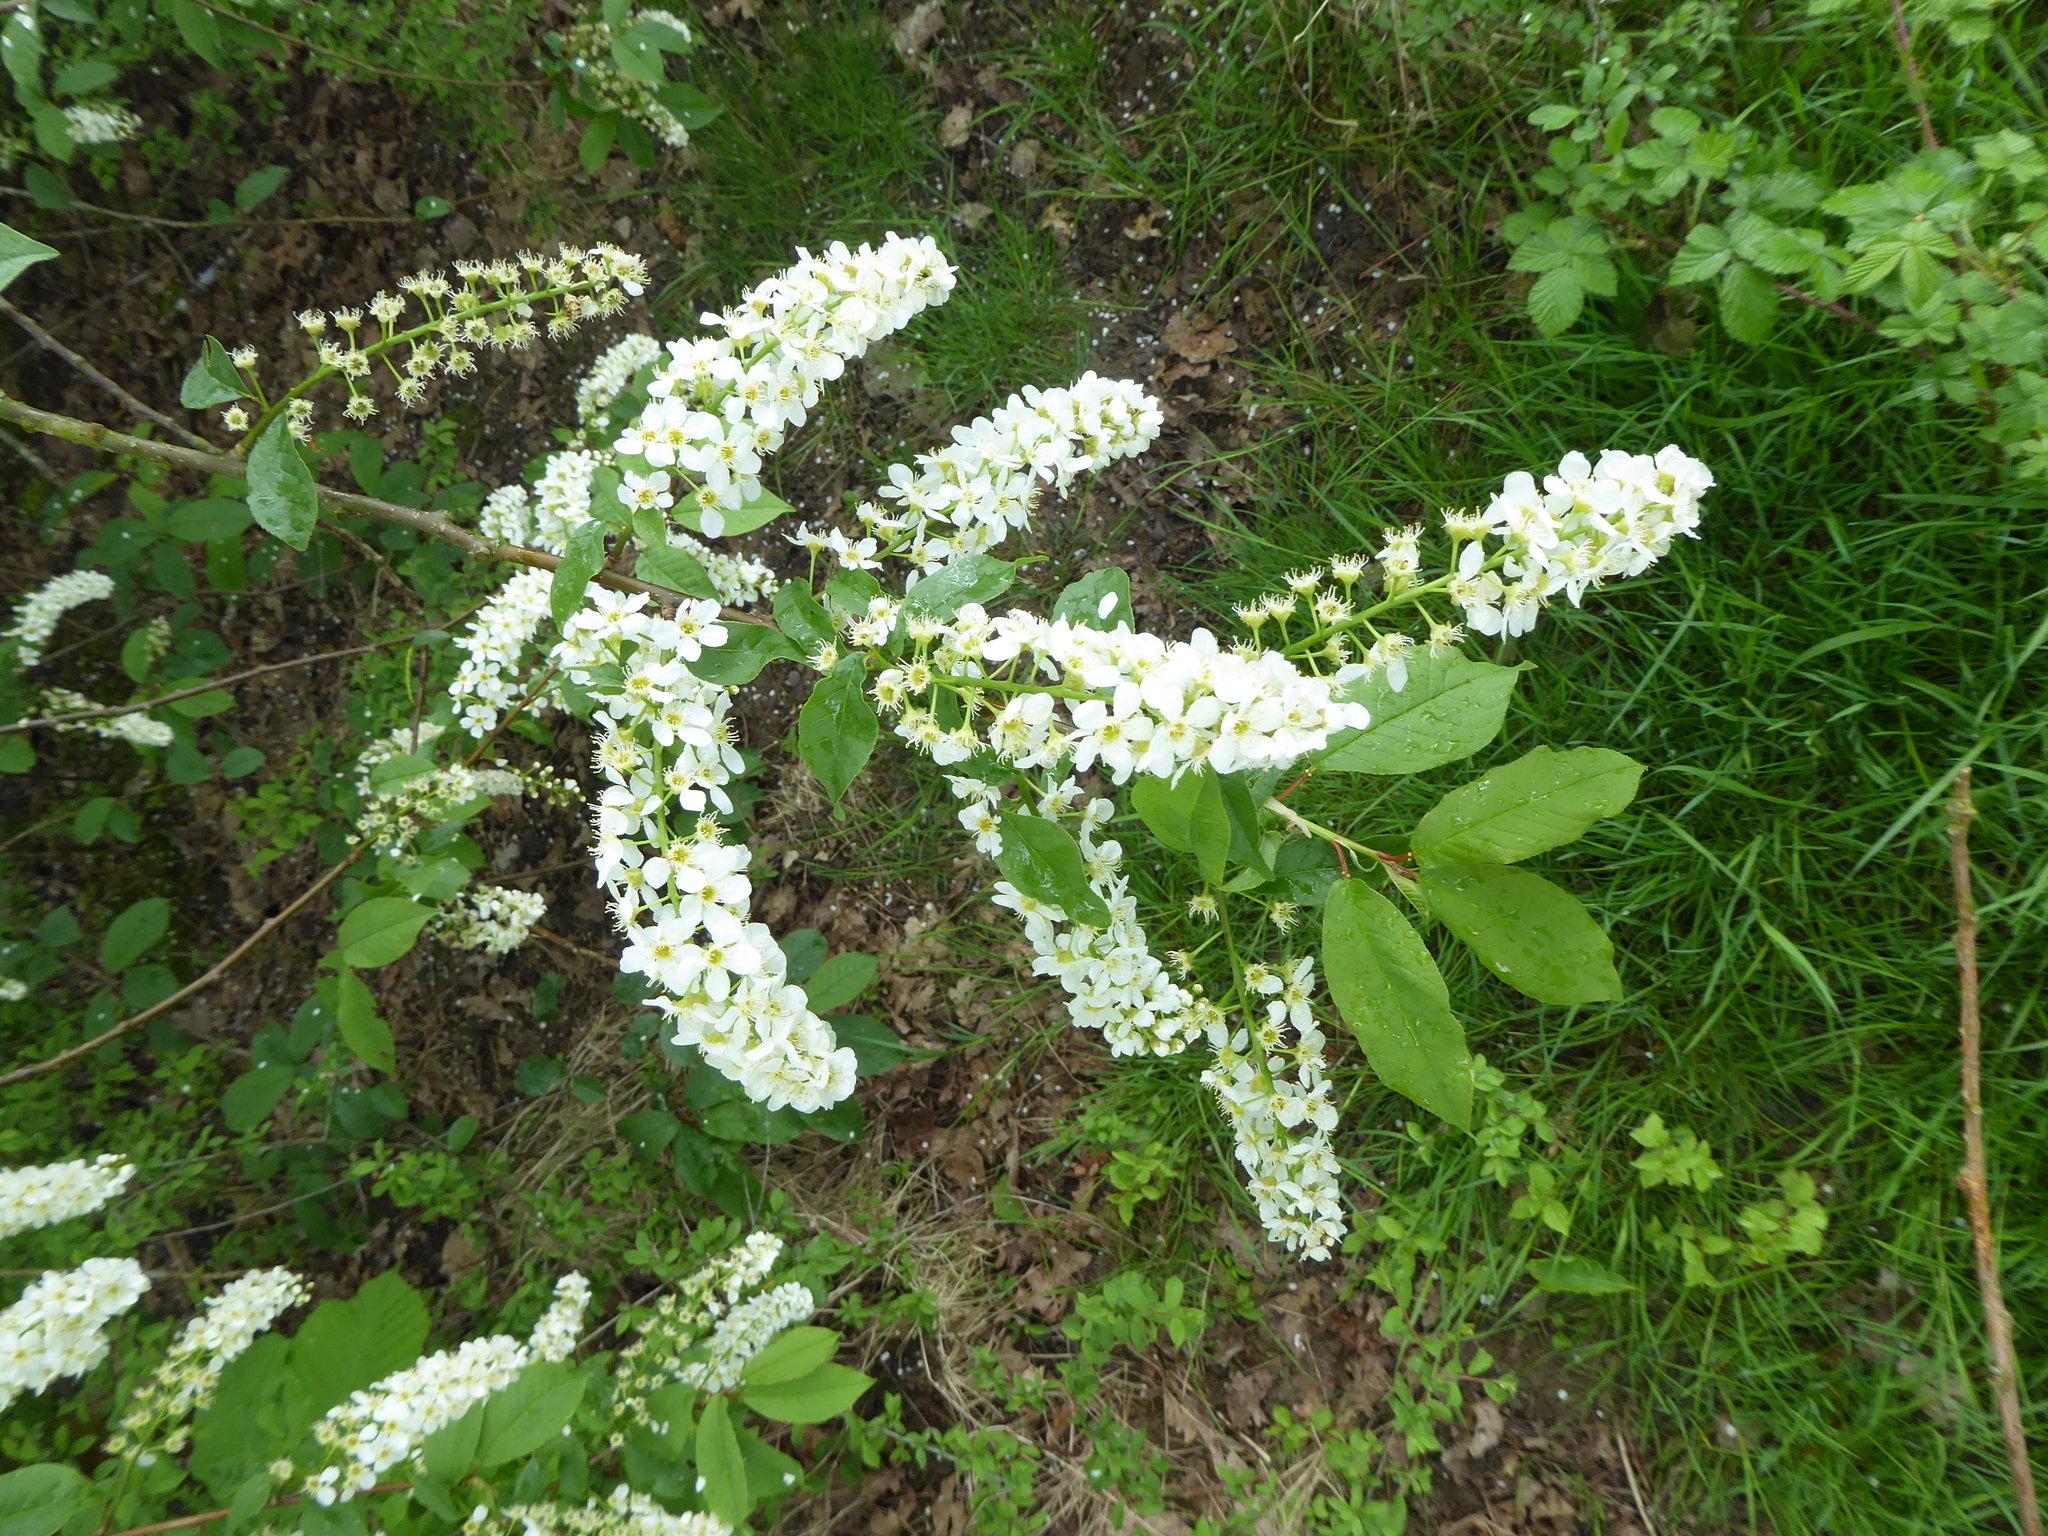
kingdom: Plantae
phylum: Tracheophyta
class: Magnoliopsida
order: Rosales
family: Rosaceae
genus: Prunus
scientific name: Prunus padus
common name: Bird cherry
